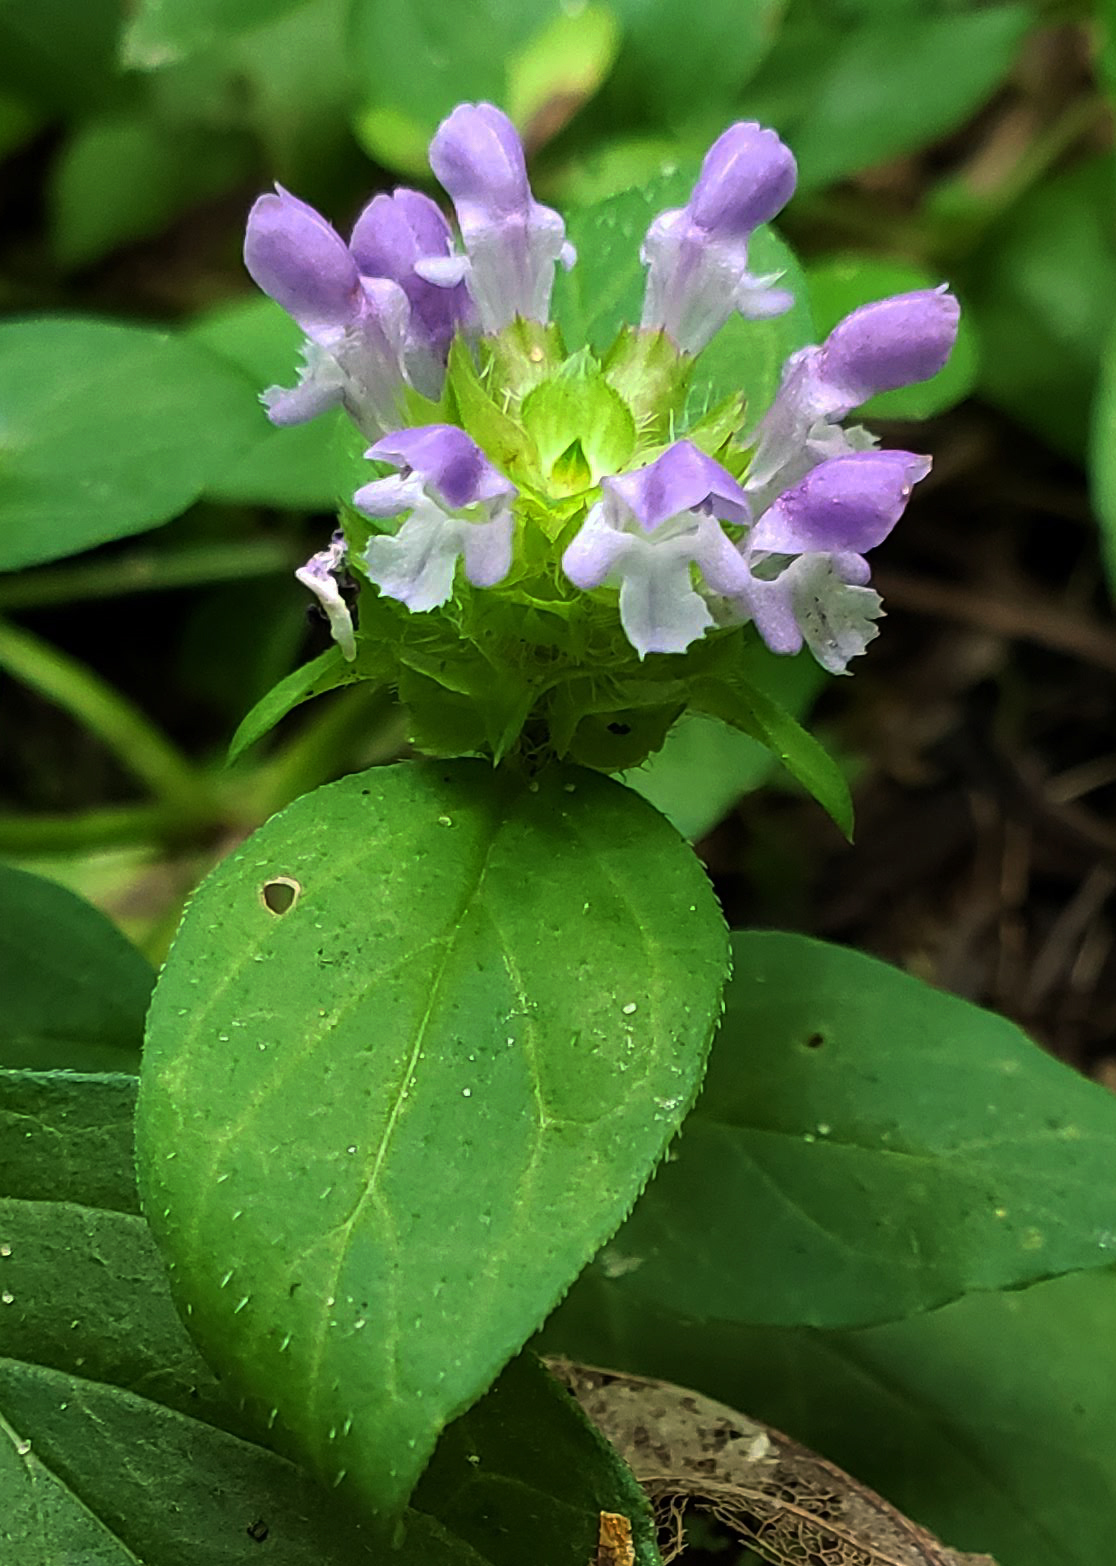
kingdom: Plantae
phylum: Tracheophyta
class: Magnoliopsida
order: Lamiales
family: Lamiaceae
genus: Prunella
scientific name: Prunella vulgaris
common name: Heal-all
